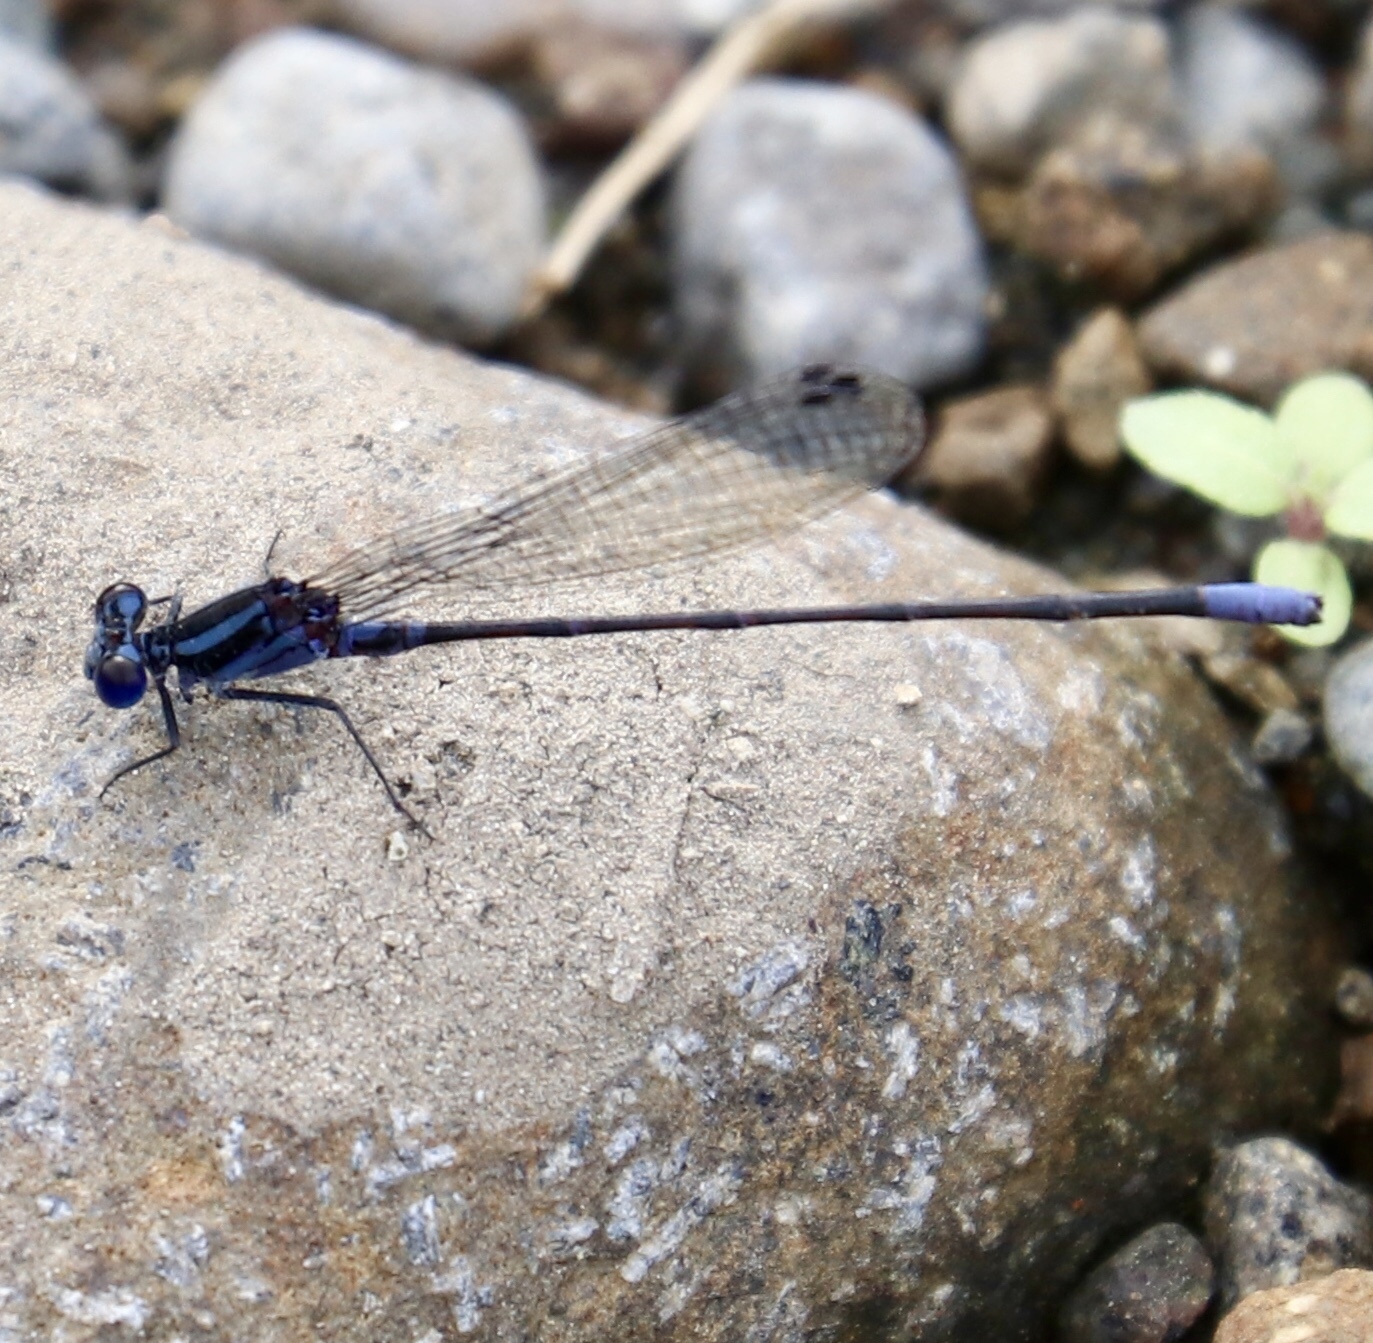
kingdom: Animalia
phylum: Arthropoda
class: Insecta
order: Odonata
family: Coenagrionidae
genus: Argia
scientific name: Argia oculata
